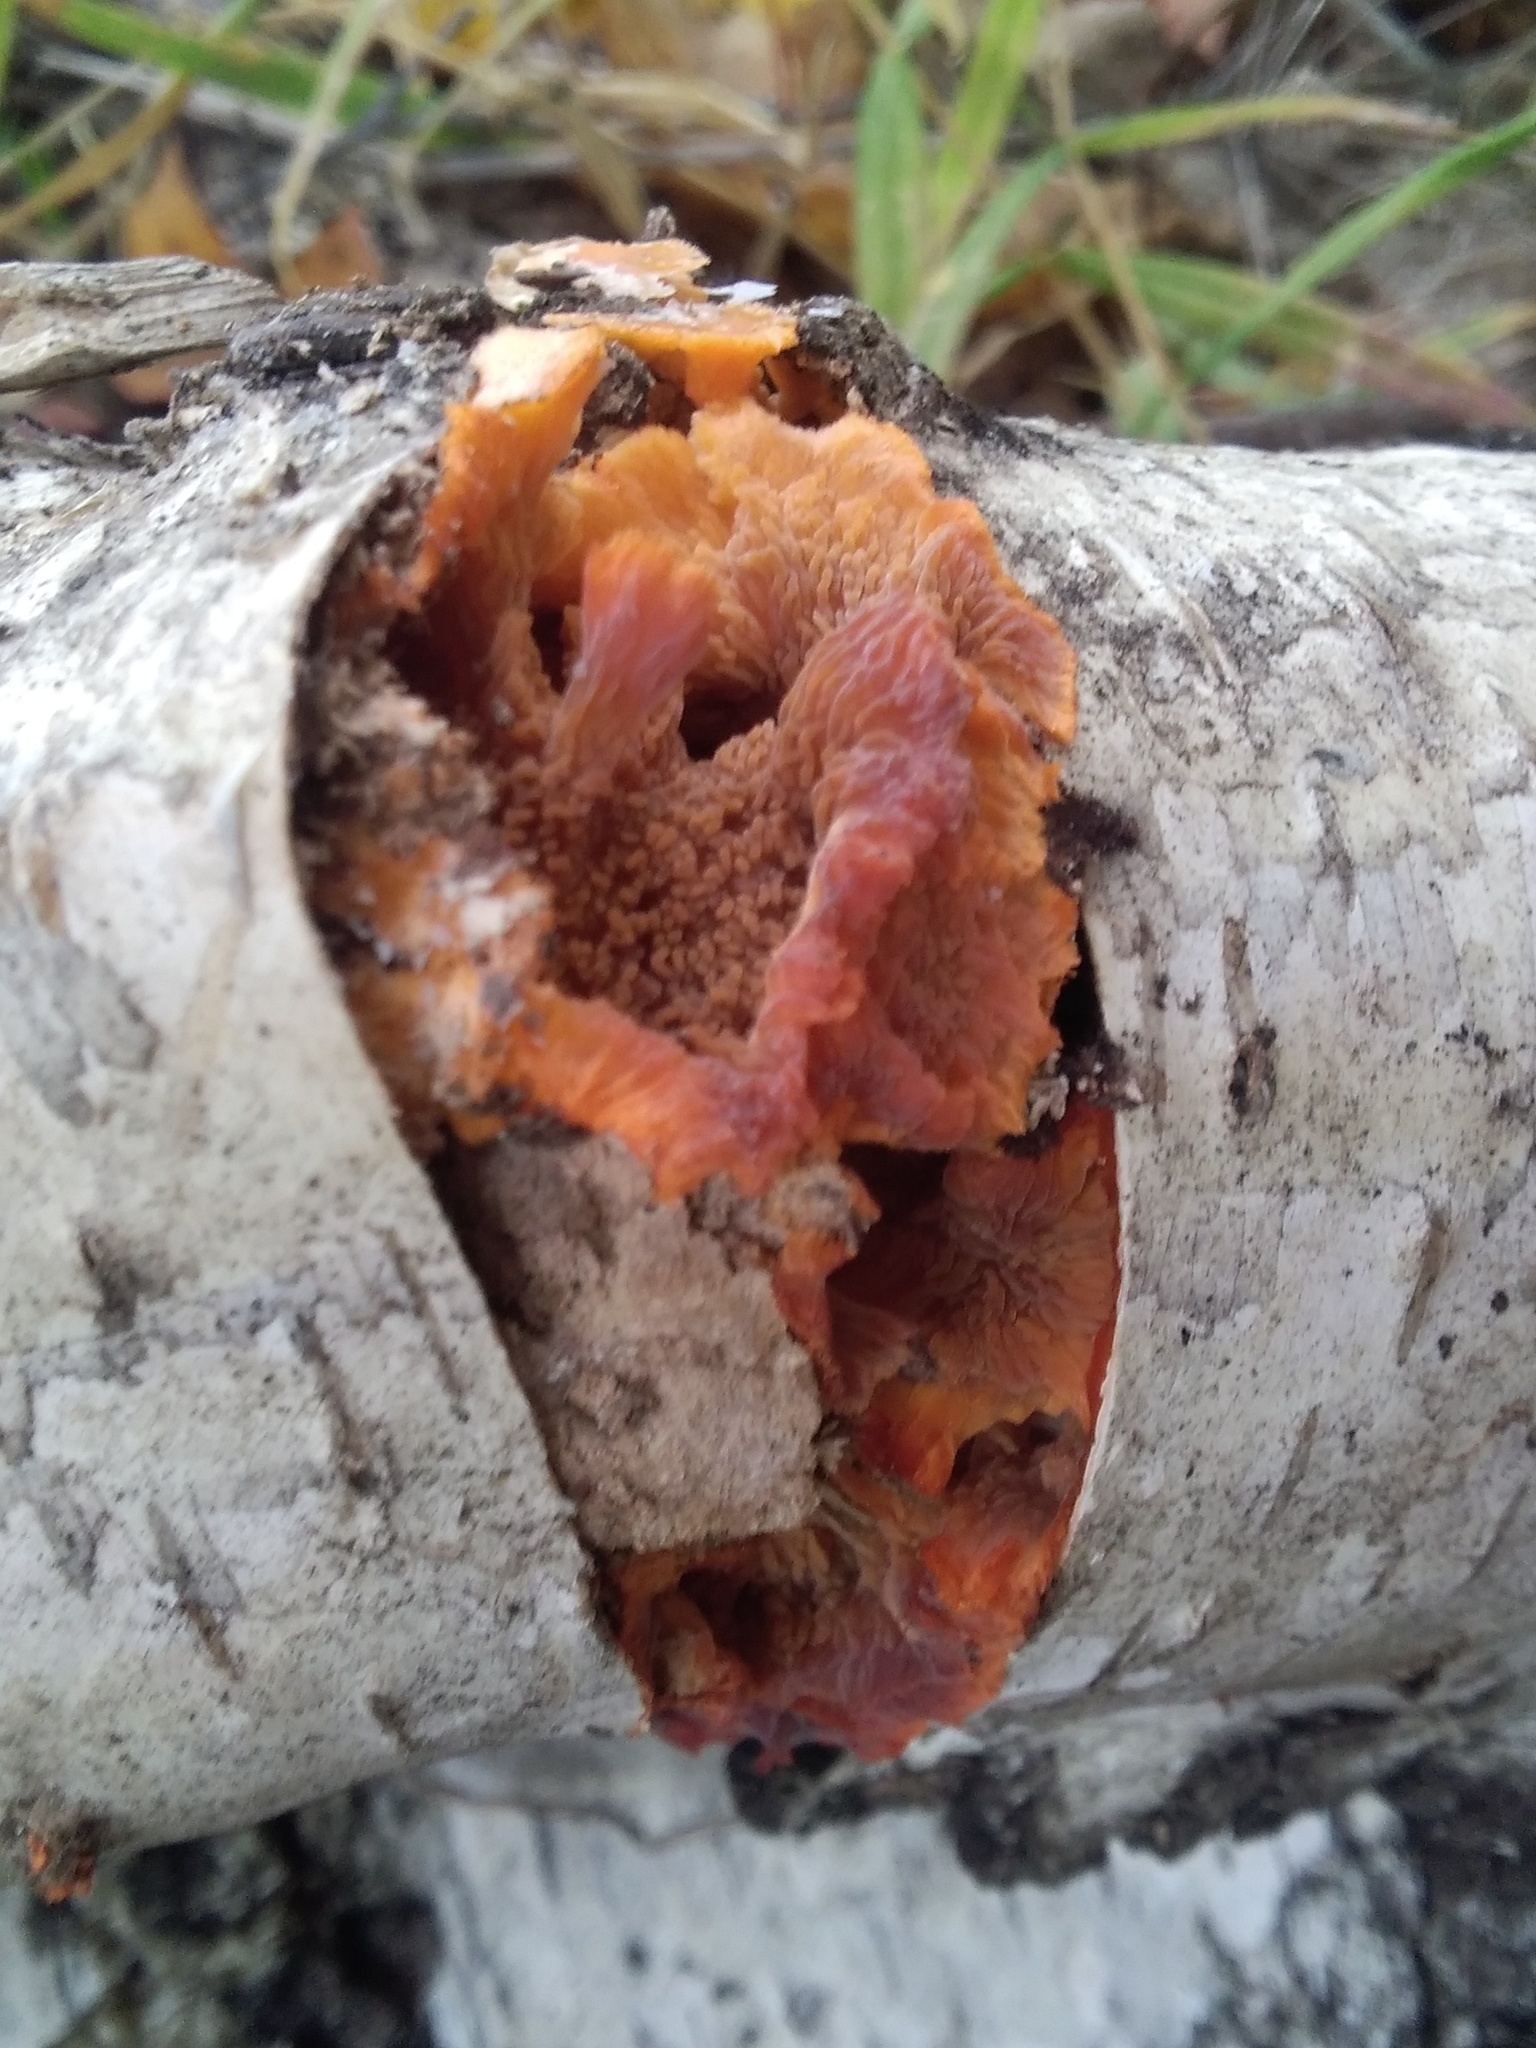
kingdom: Fungi
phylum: Basidiomycota
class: Agaricomycetes
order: Polyporales
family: Meruliaceae
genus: Phlebia
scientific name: Phlebia radiata
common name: Wrinkled crust
